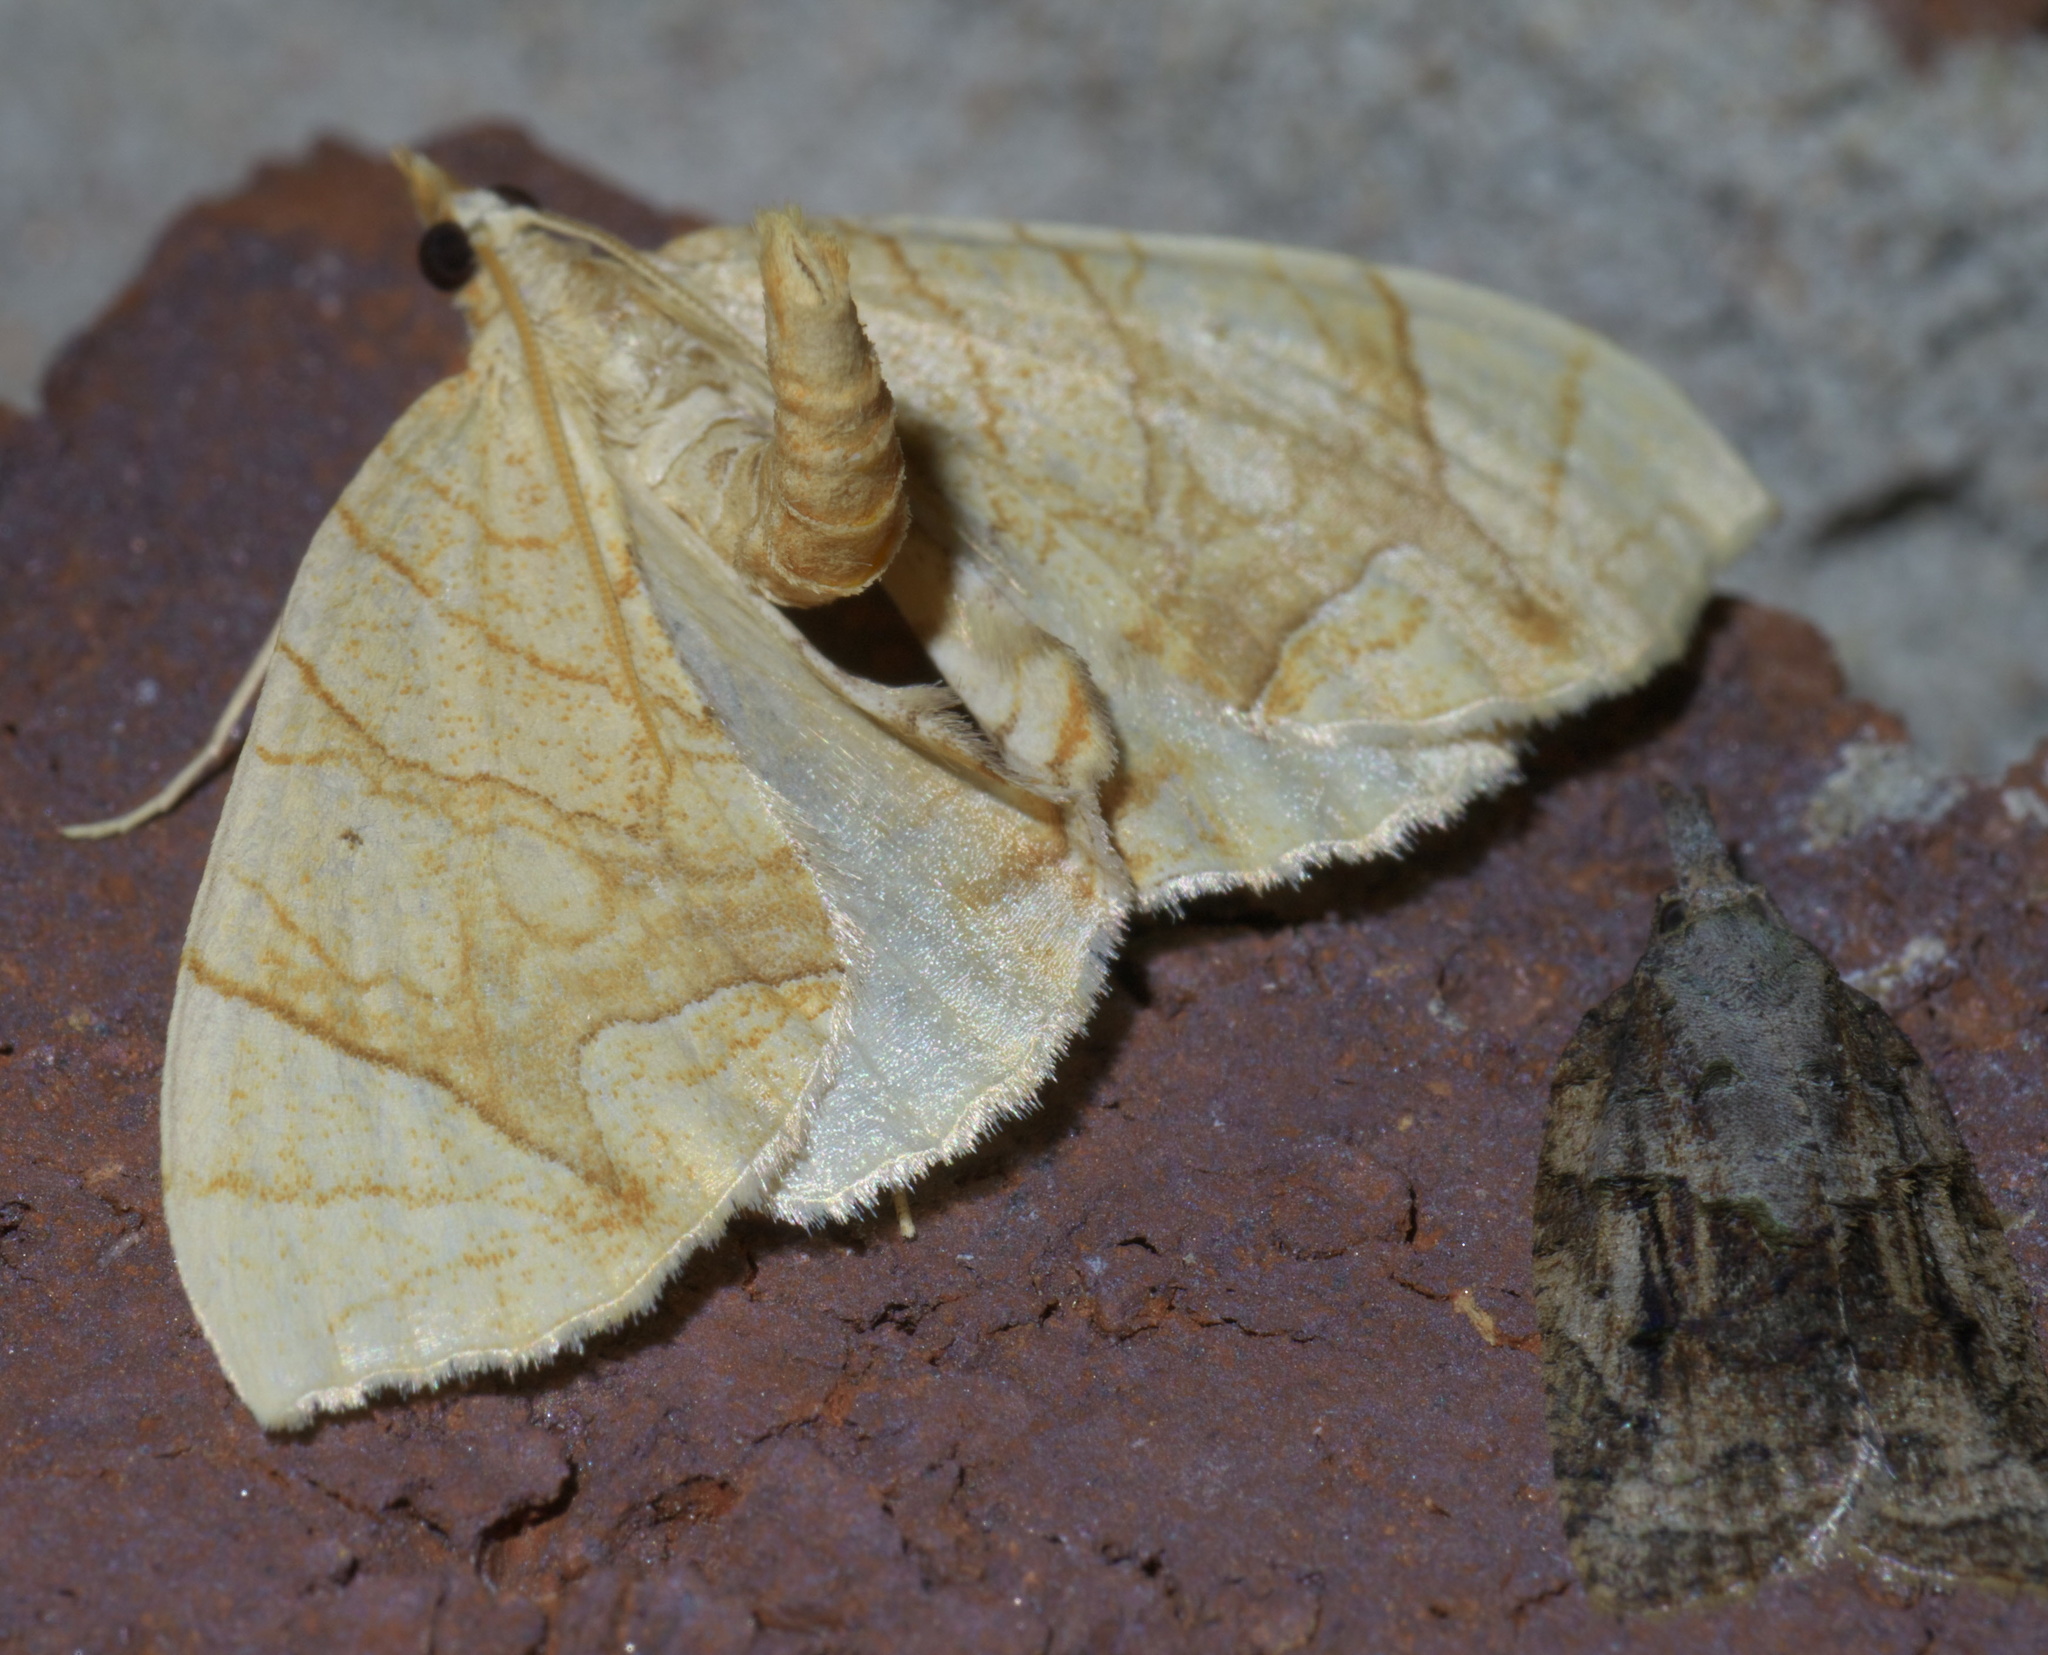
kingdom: Animalia
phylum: Arthropoda
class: Insecta
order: Lepidoptera
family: Geometridae
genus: Eulithis
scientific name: Eulithis
